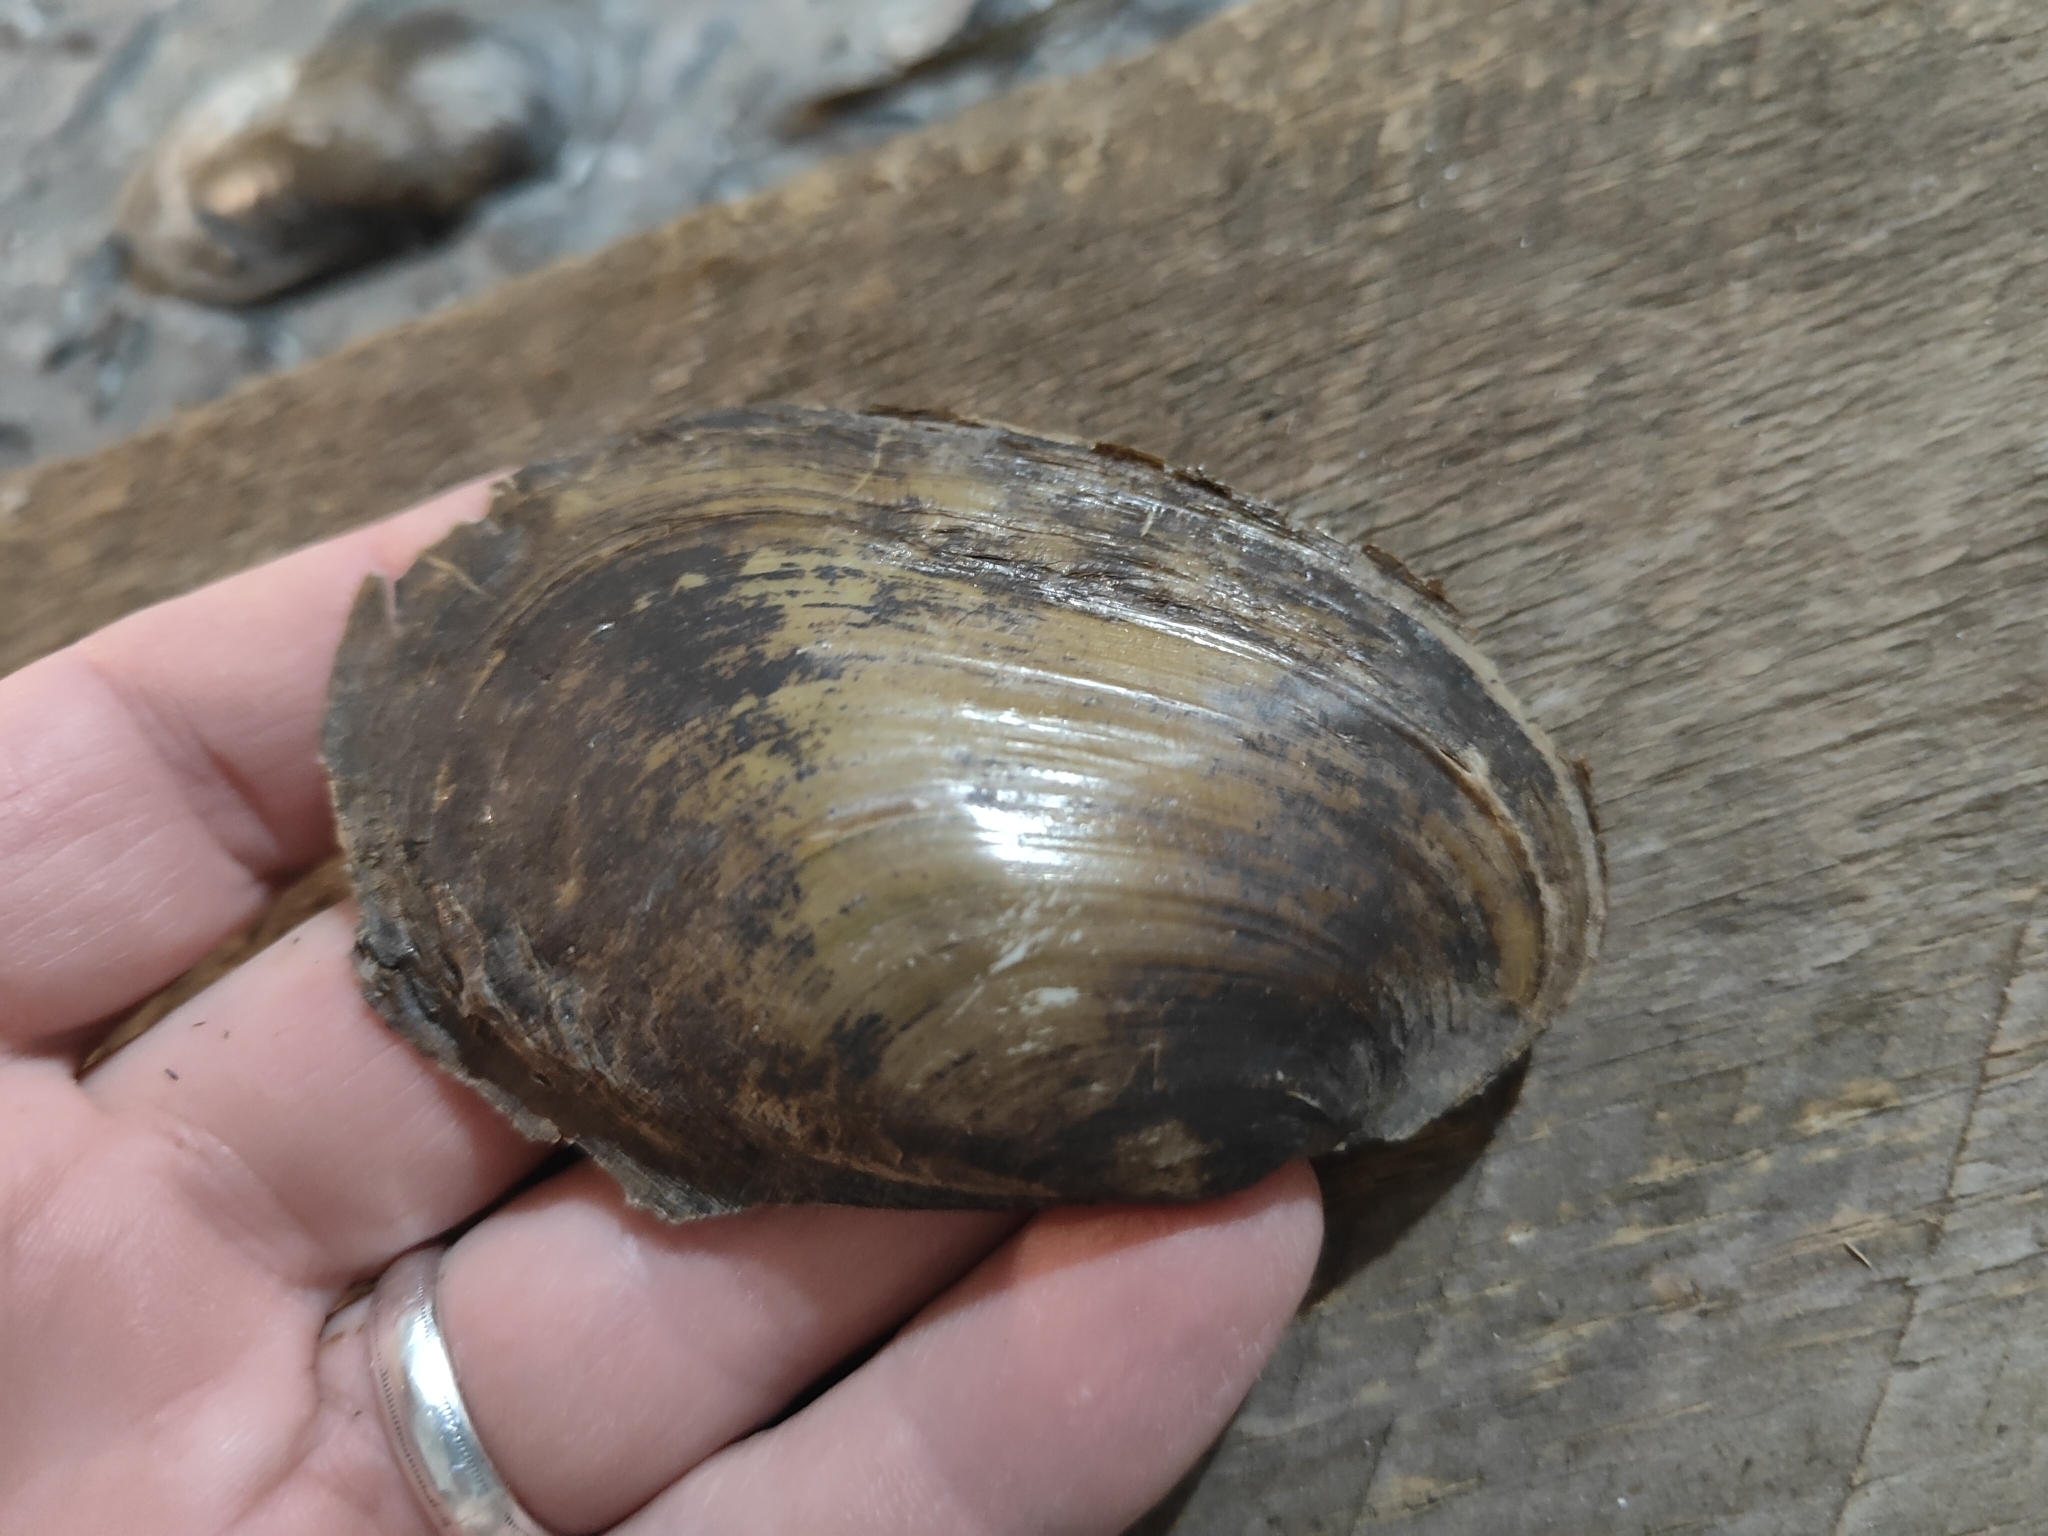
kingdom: Animalia
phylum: Mollusca
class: Bivalvia
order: Unionida
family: Unionidae
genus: Potamilus
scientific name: Potamilus fragilis
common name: Fragile papershell
